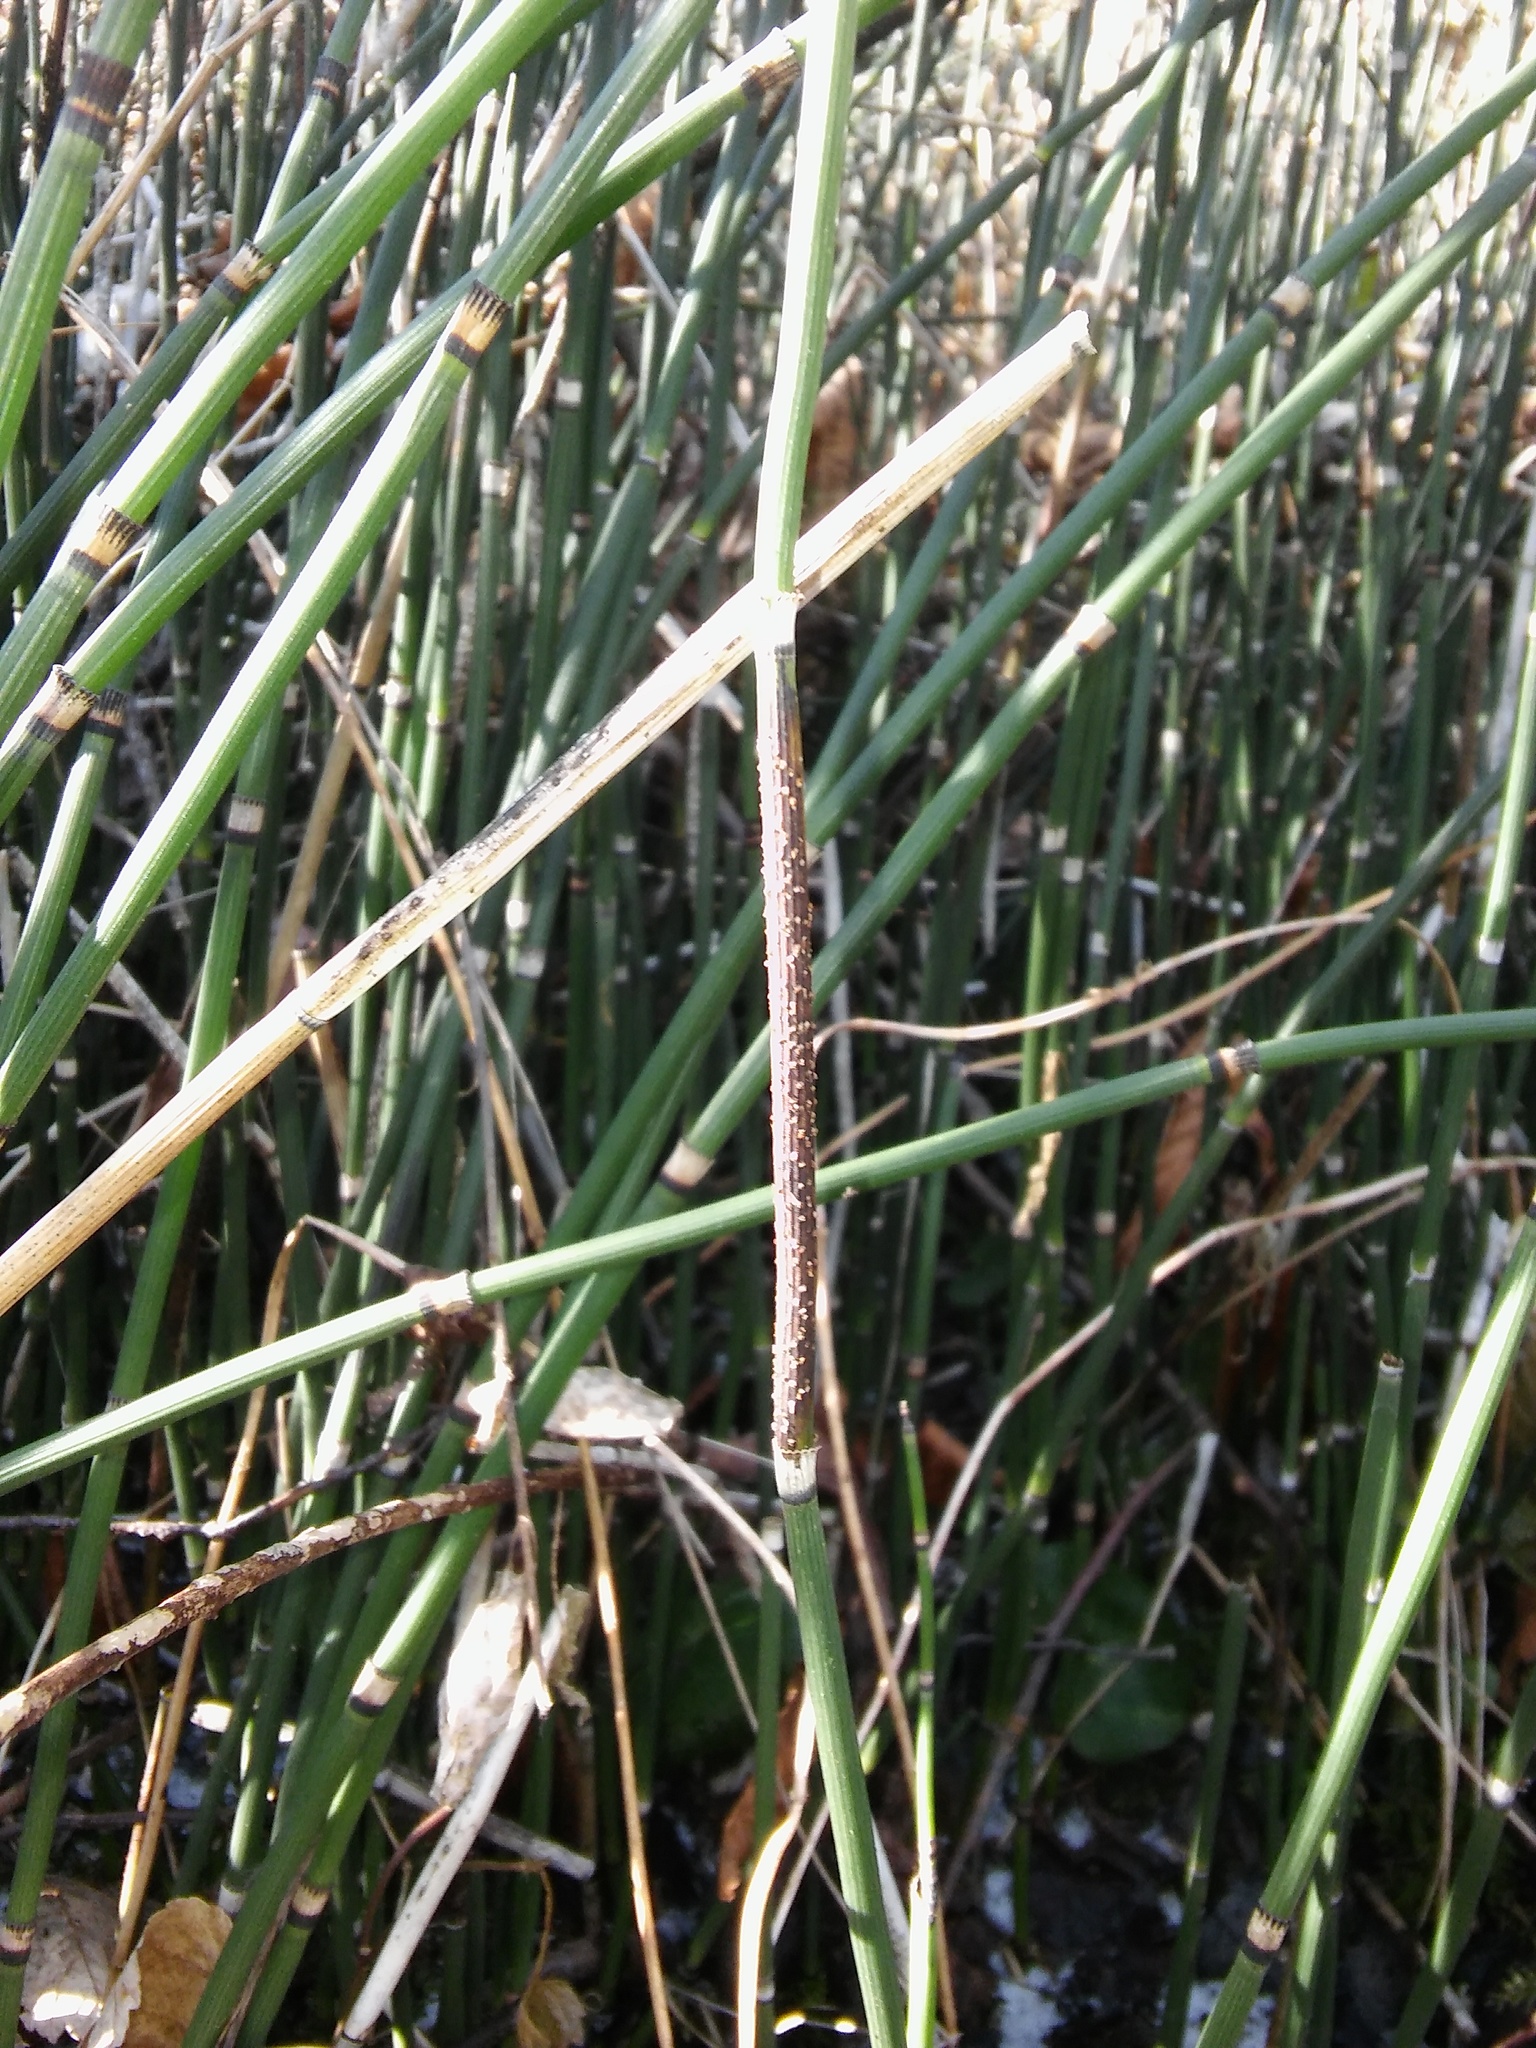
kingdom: Fungi
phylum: Ascomycota
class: Leotiomycetes
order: Helotiales
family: Helotiaceae
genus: Stamnaria
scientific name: Stamnaria americana
